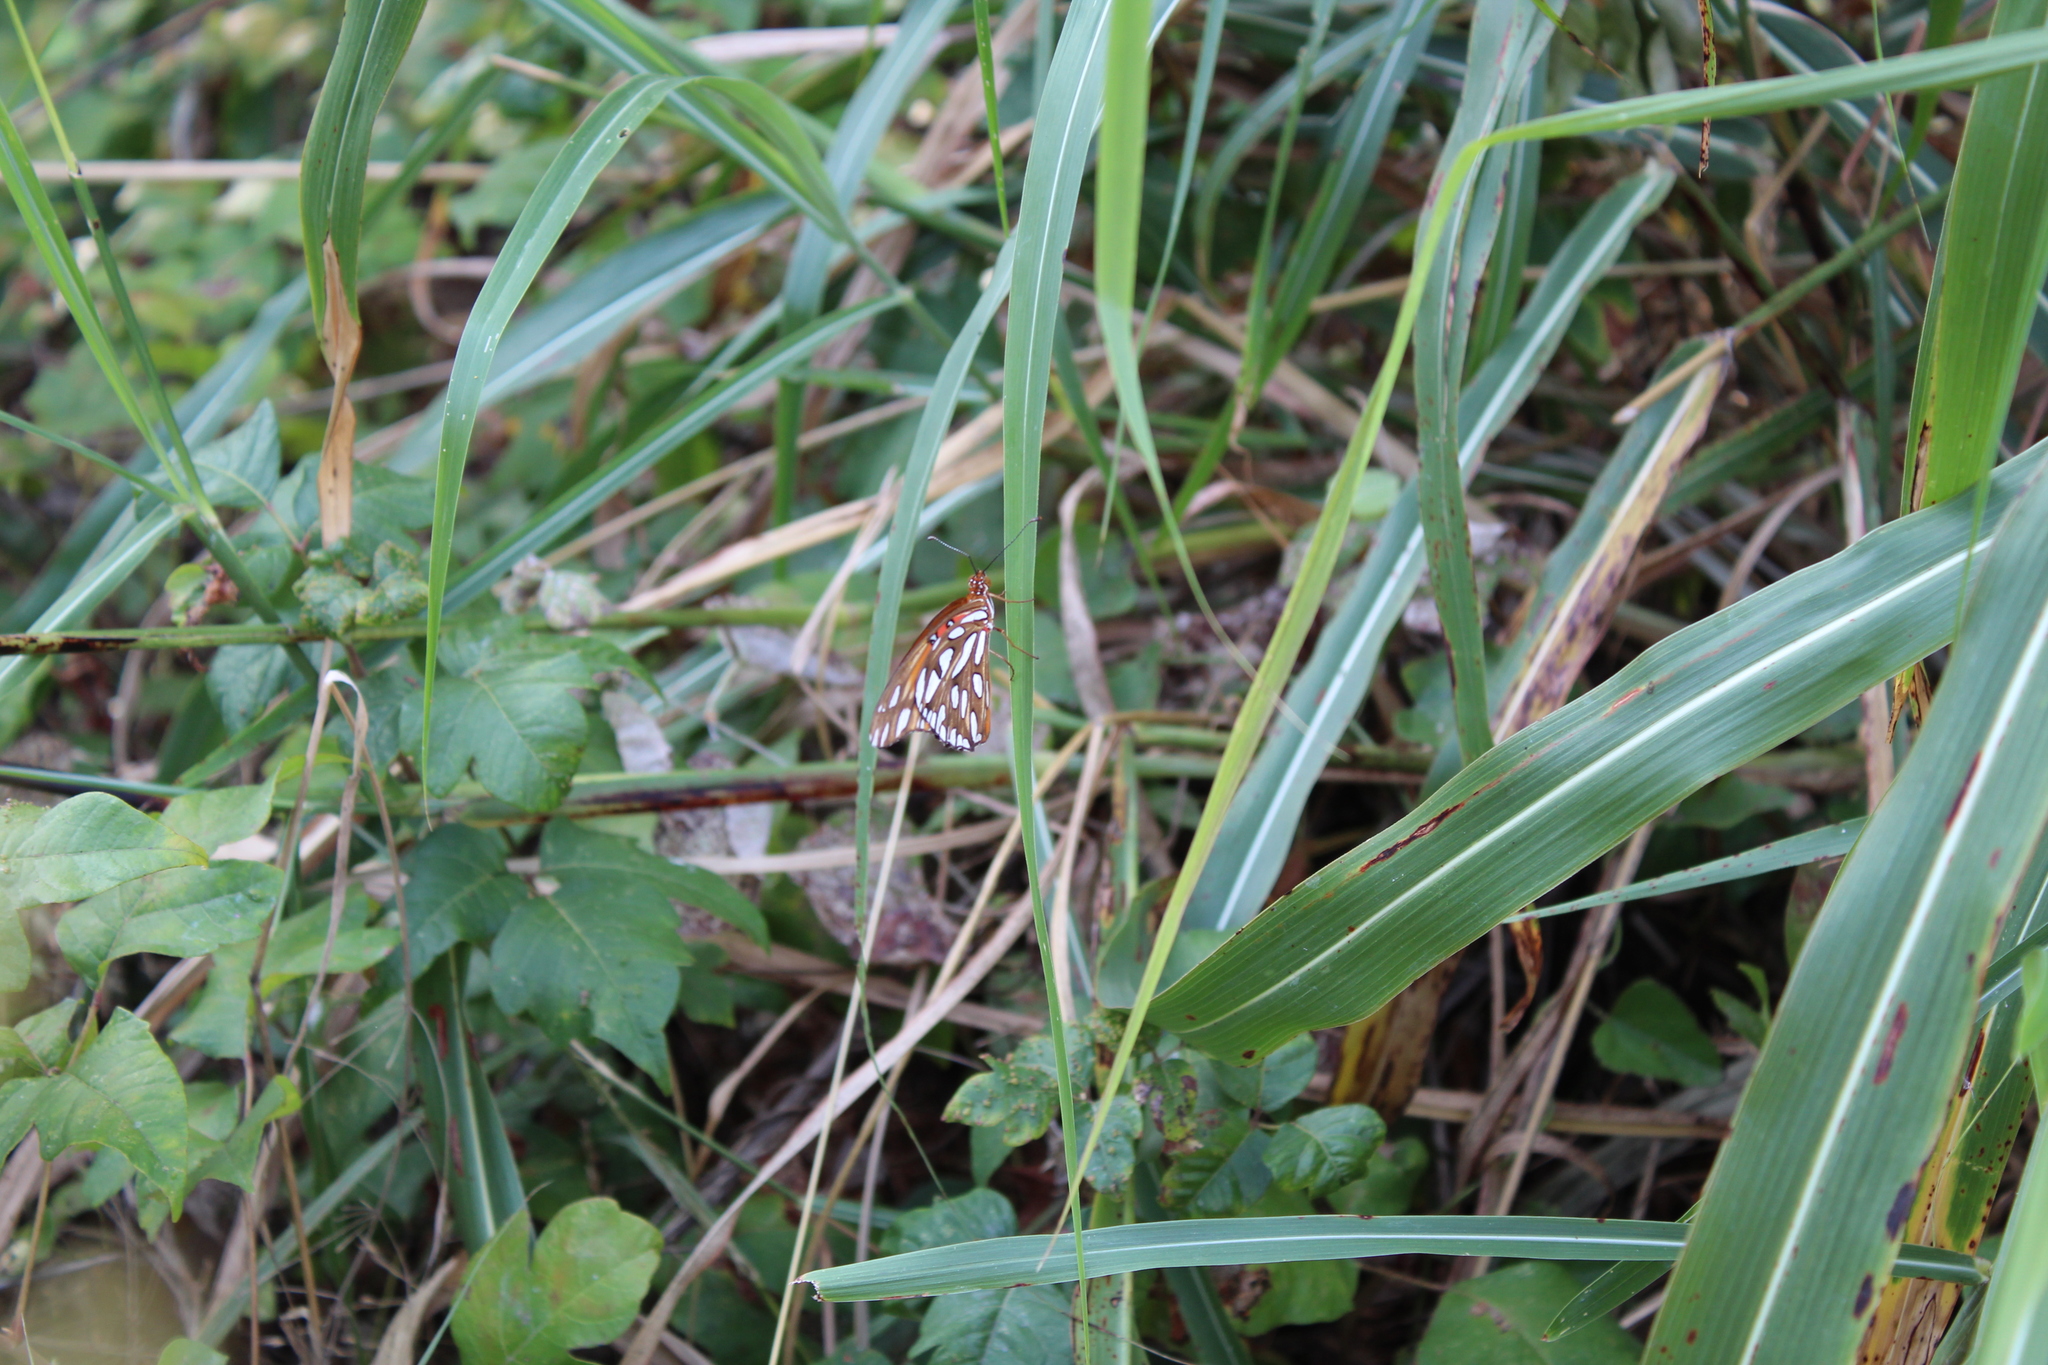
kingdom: Animalia
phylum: Arthropoda
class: Insecta
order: Lepidoptera
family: Nymphalidae
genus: Dione
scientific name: Dione vanillae
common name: Gulf fritillary
